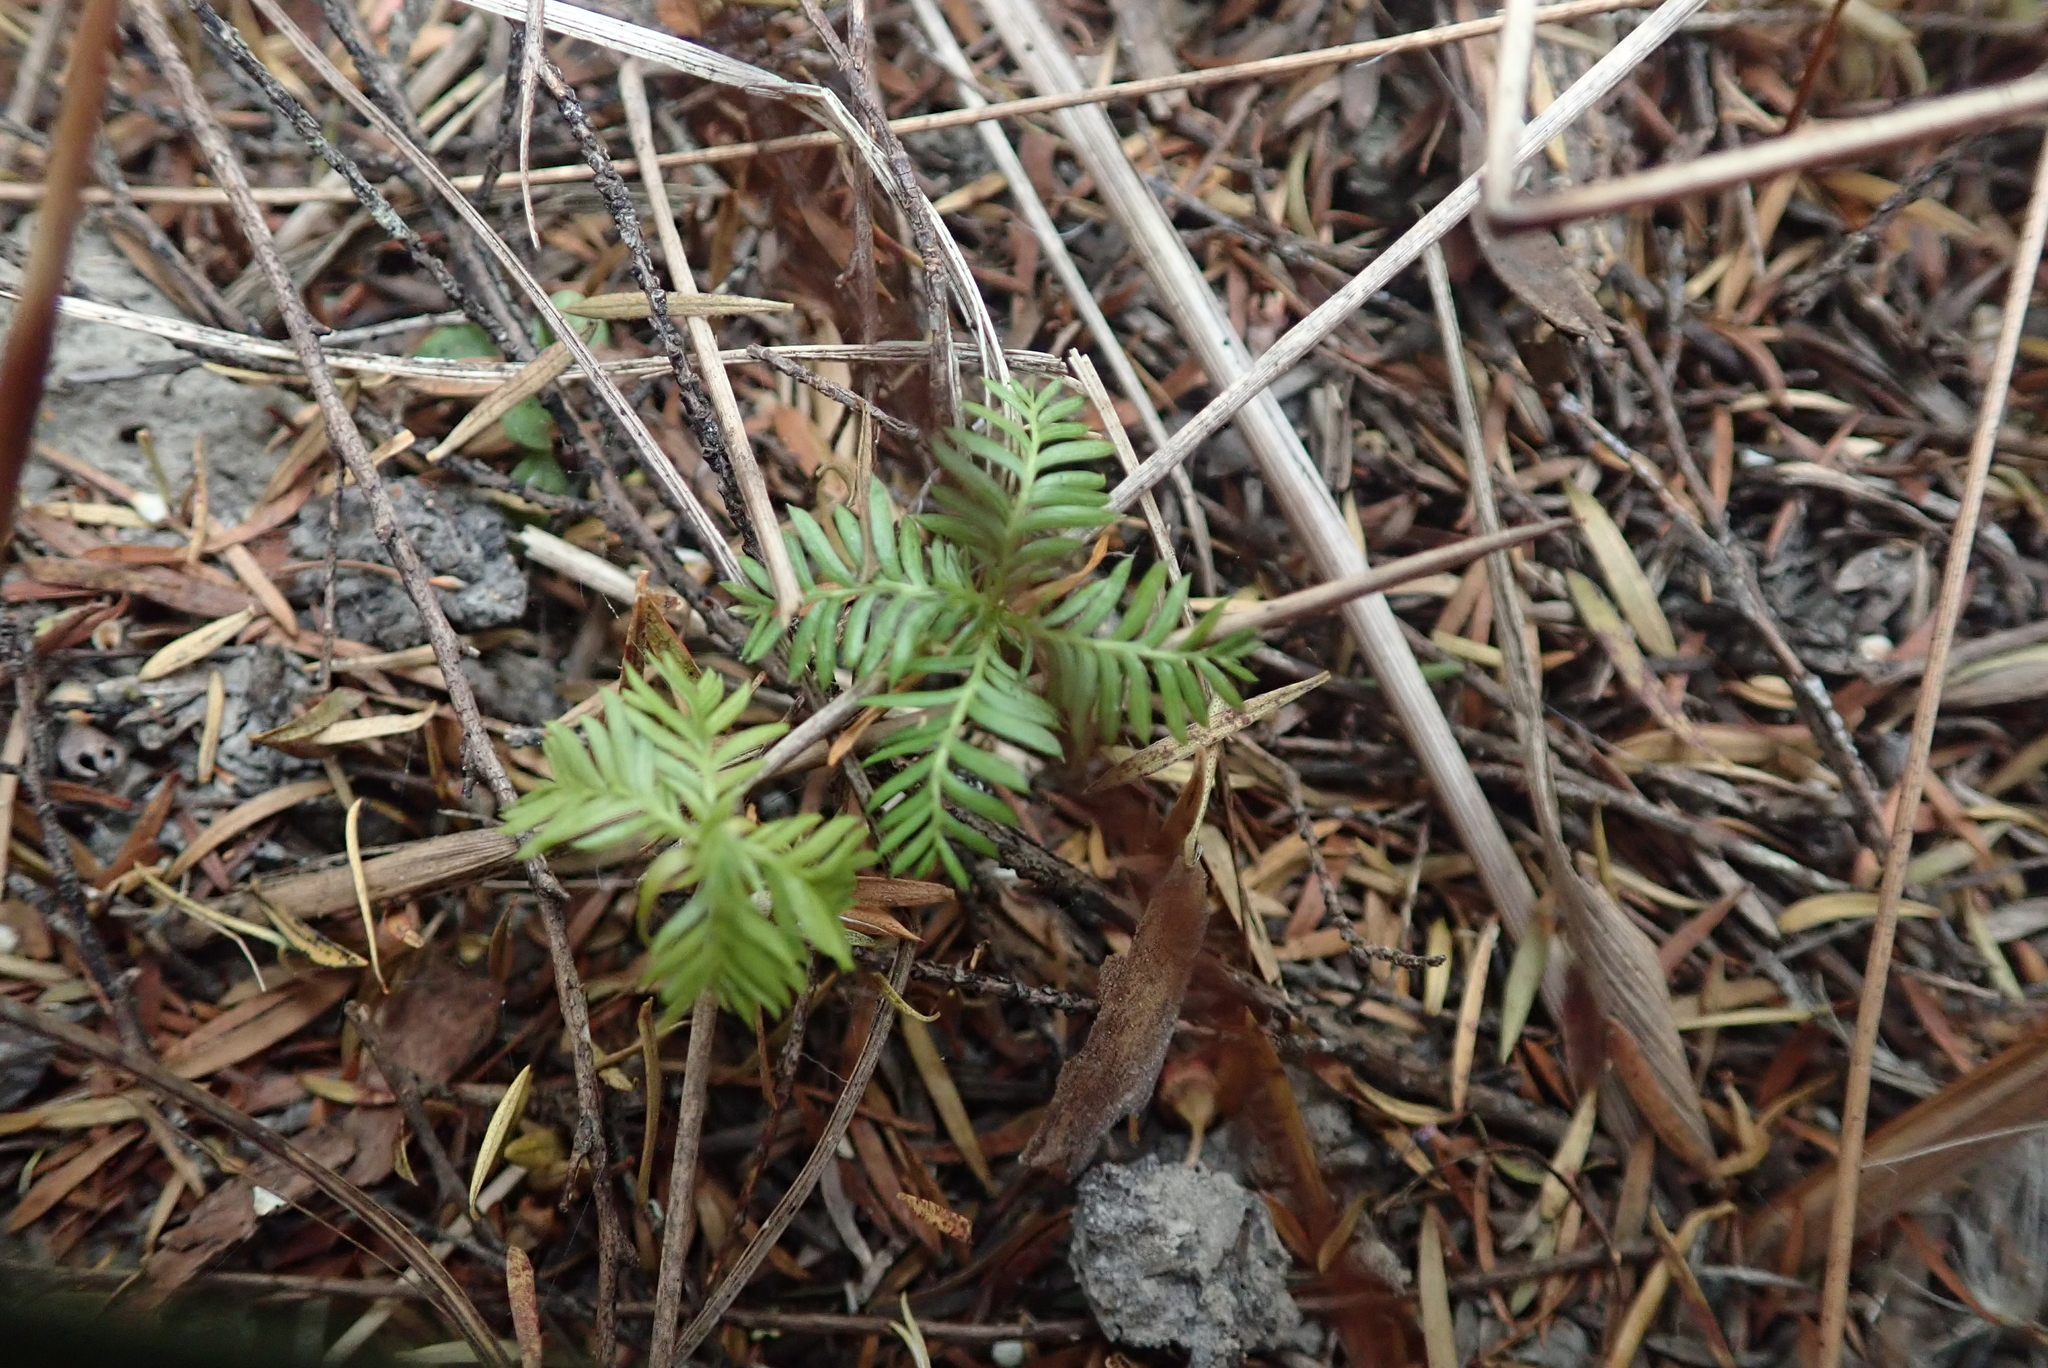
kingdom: Plantae
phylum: Tracheophyta
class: Pinopsida
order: Pinales
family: Podocarpaceae
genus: Dacrycarpus
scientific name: Dacrycarpus dacrydioides
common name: White pine
